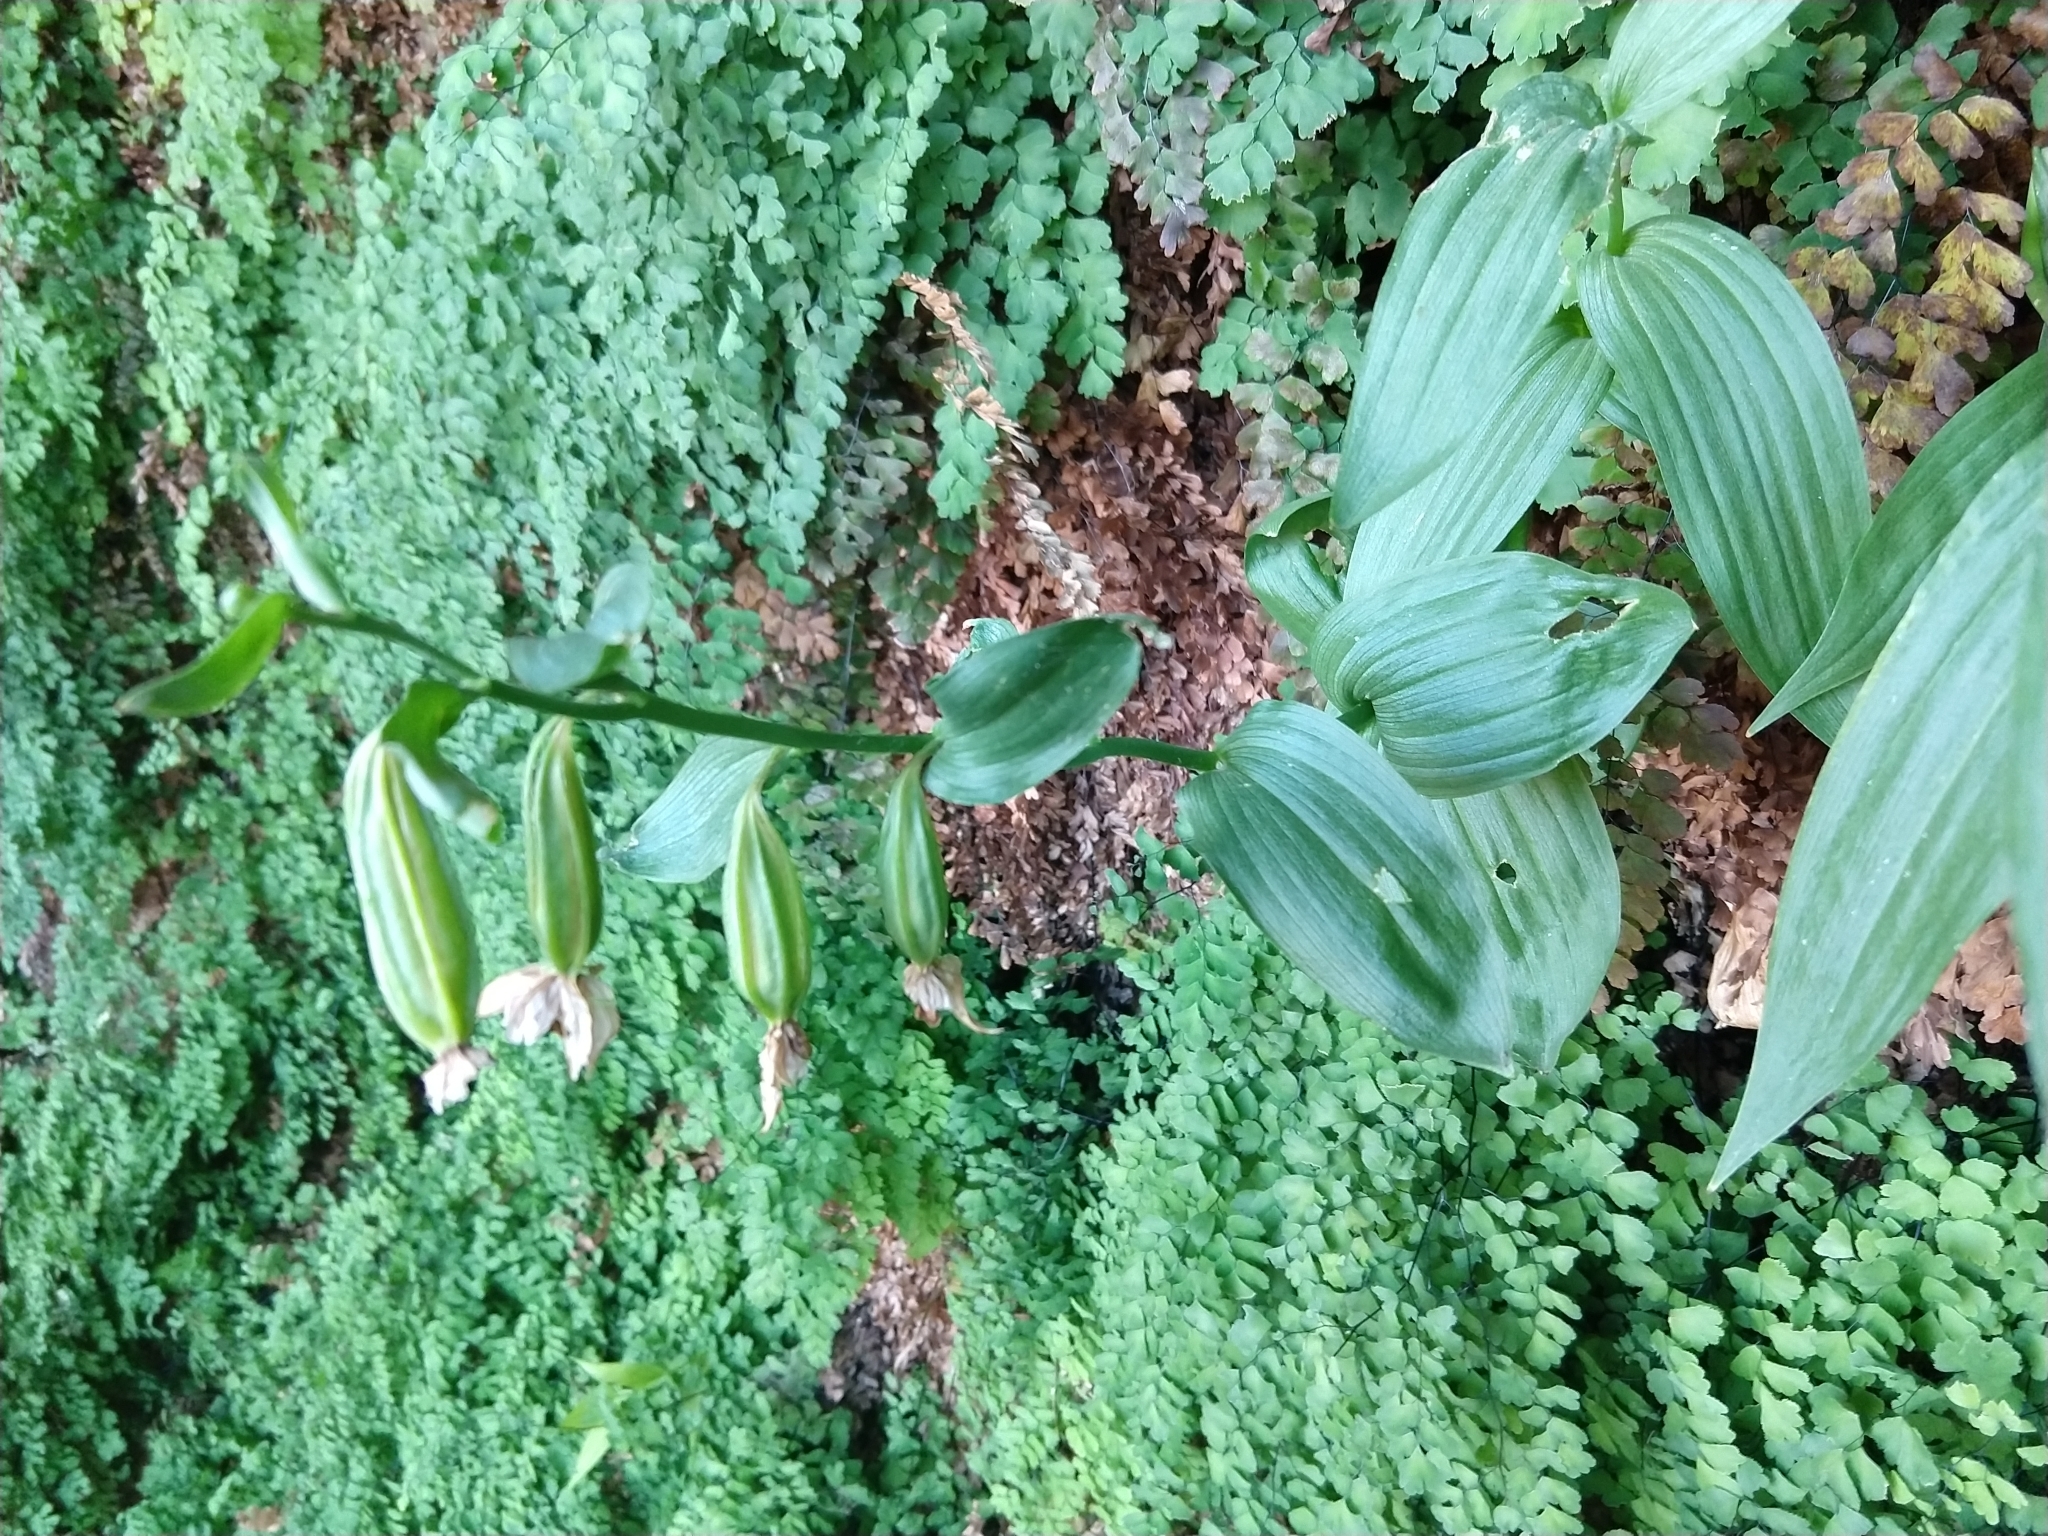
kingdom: Plantae
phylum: Tracheophyta
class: Liliopsida
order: Asparagales
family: Orchidaceae
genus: Epipactis
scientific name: Epipactis gigantea
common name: Chatterbox
